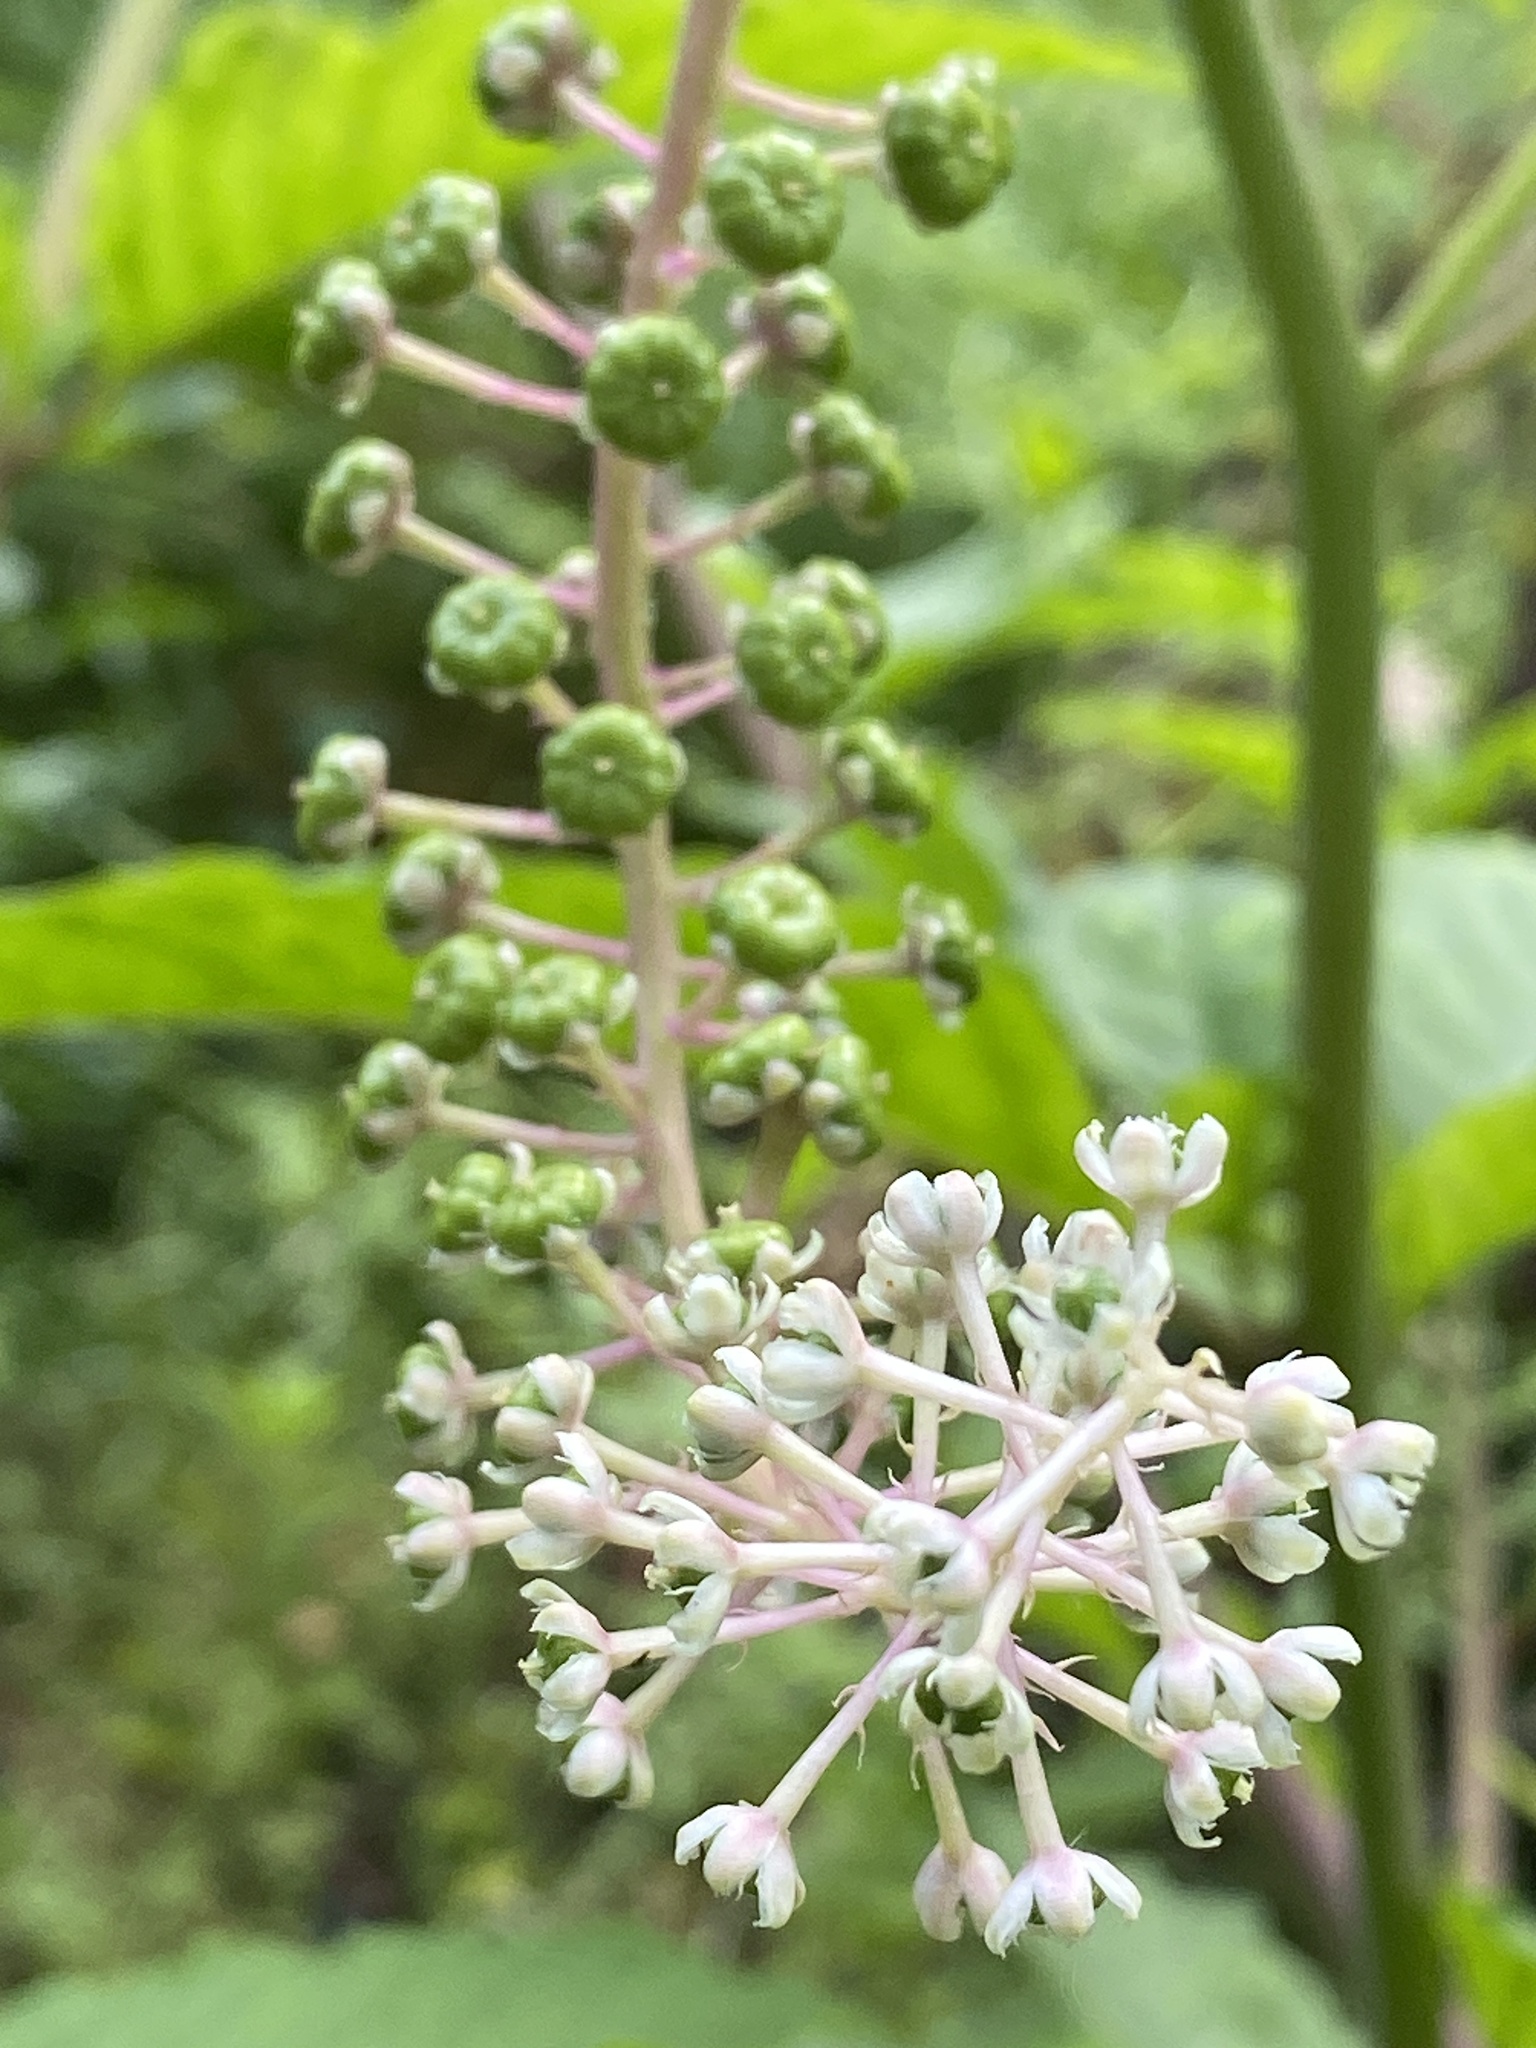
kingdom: Plantae
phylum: Tracheophyta
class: Magnoliopsida
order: Caryophyllales
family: Phytolaccaceae
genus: Phytolacca
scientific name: Phytolacca americana
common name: American pokeweed
